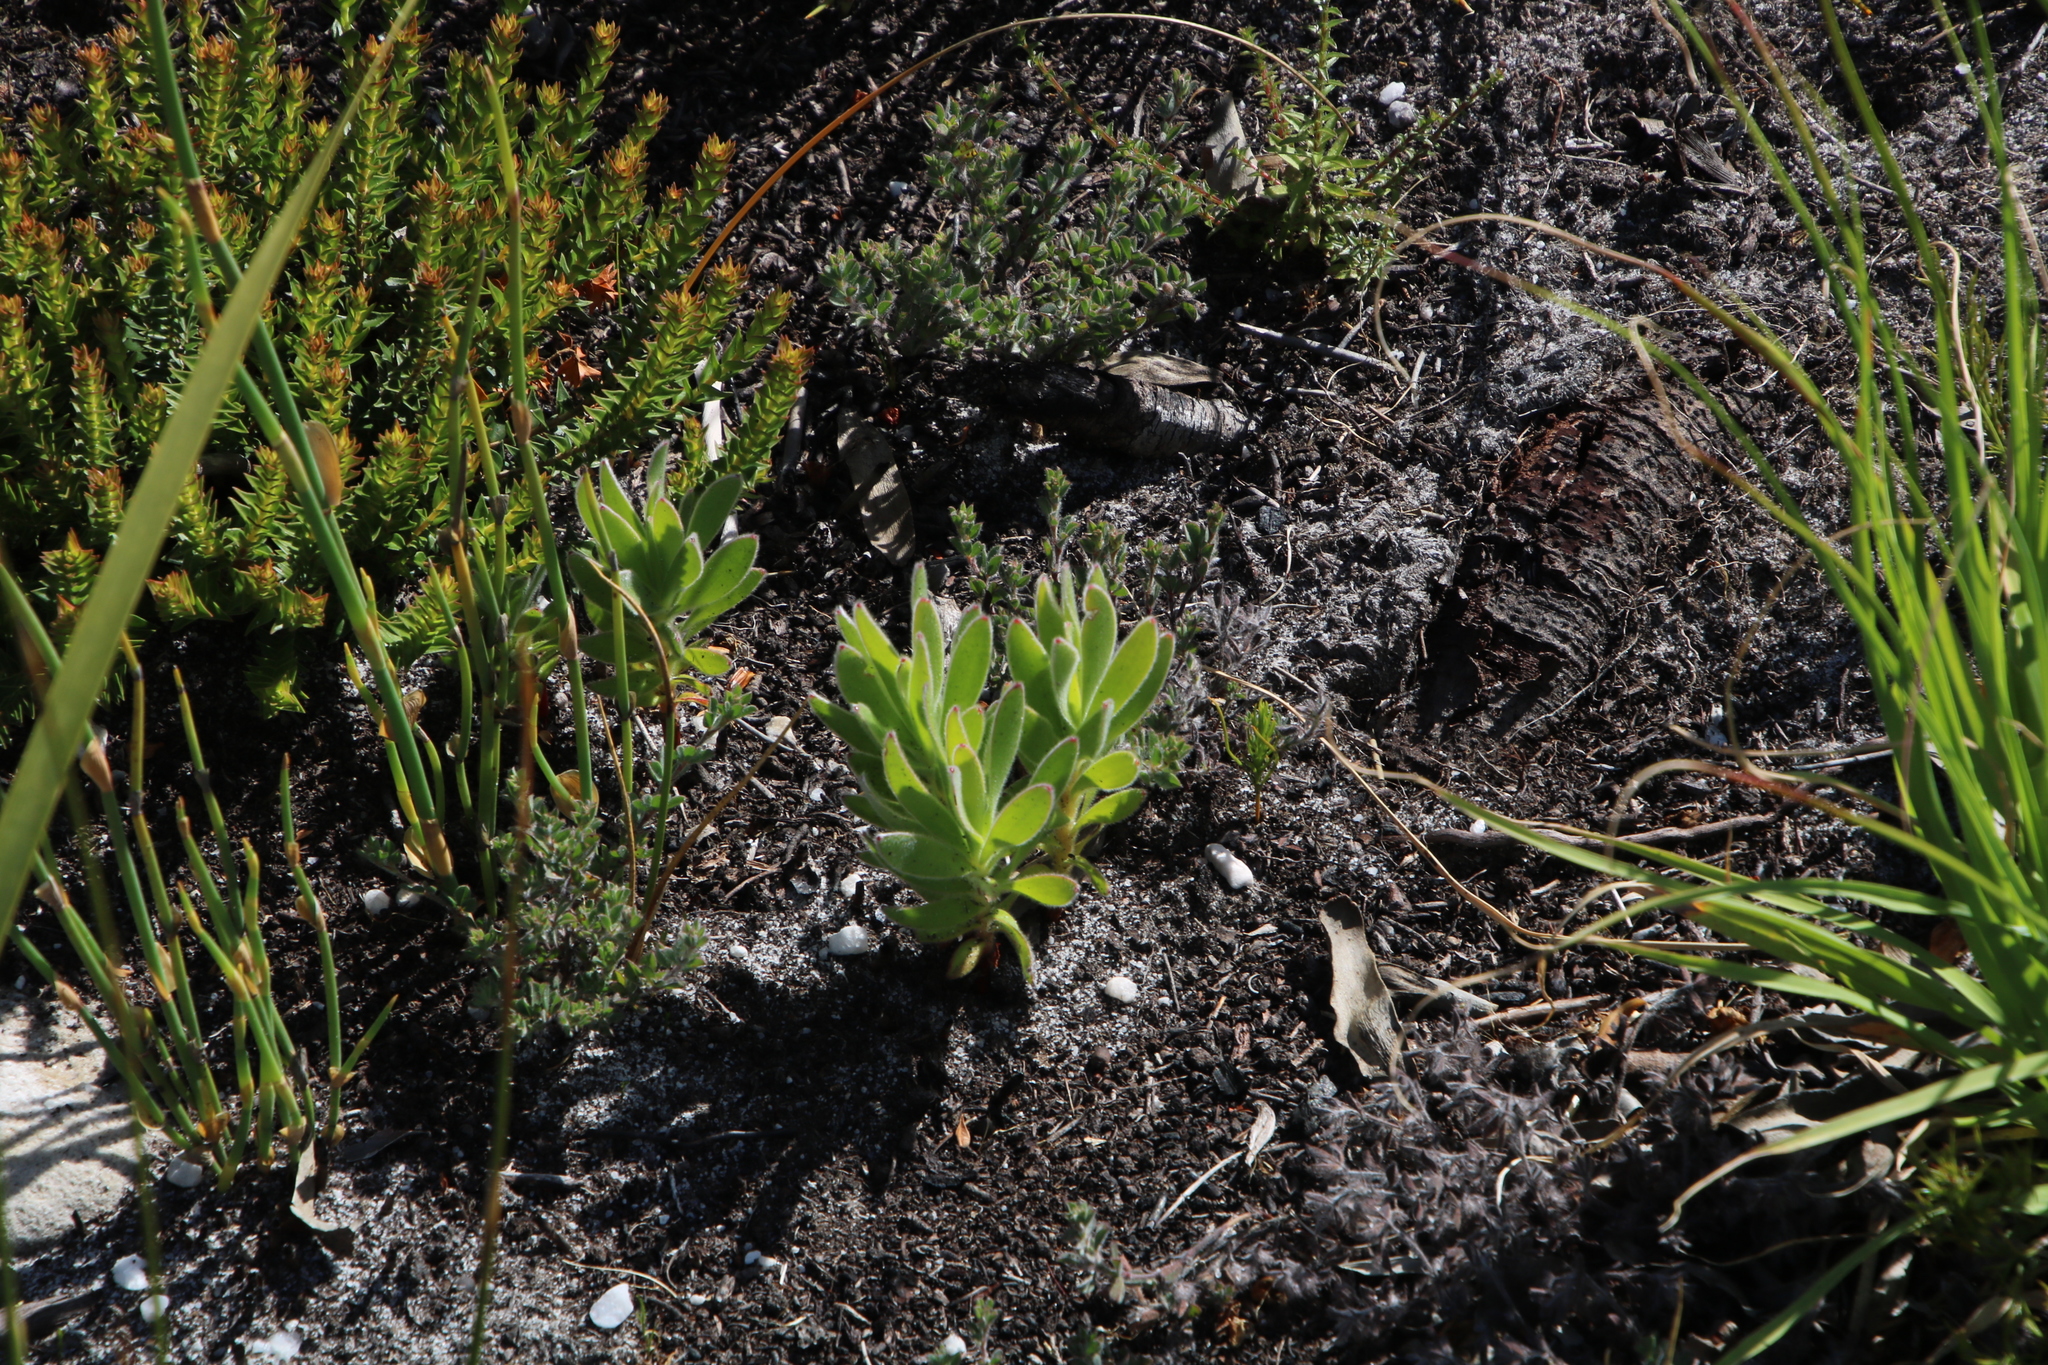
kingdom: Plantae
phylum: Tracheophyta
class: Magnoliopsida
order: Proteales
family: Proteaceae
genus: Mimetes
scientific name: Mimetes fimbriifolius
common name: Fringed bottlebrush
